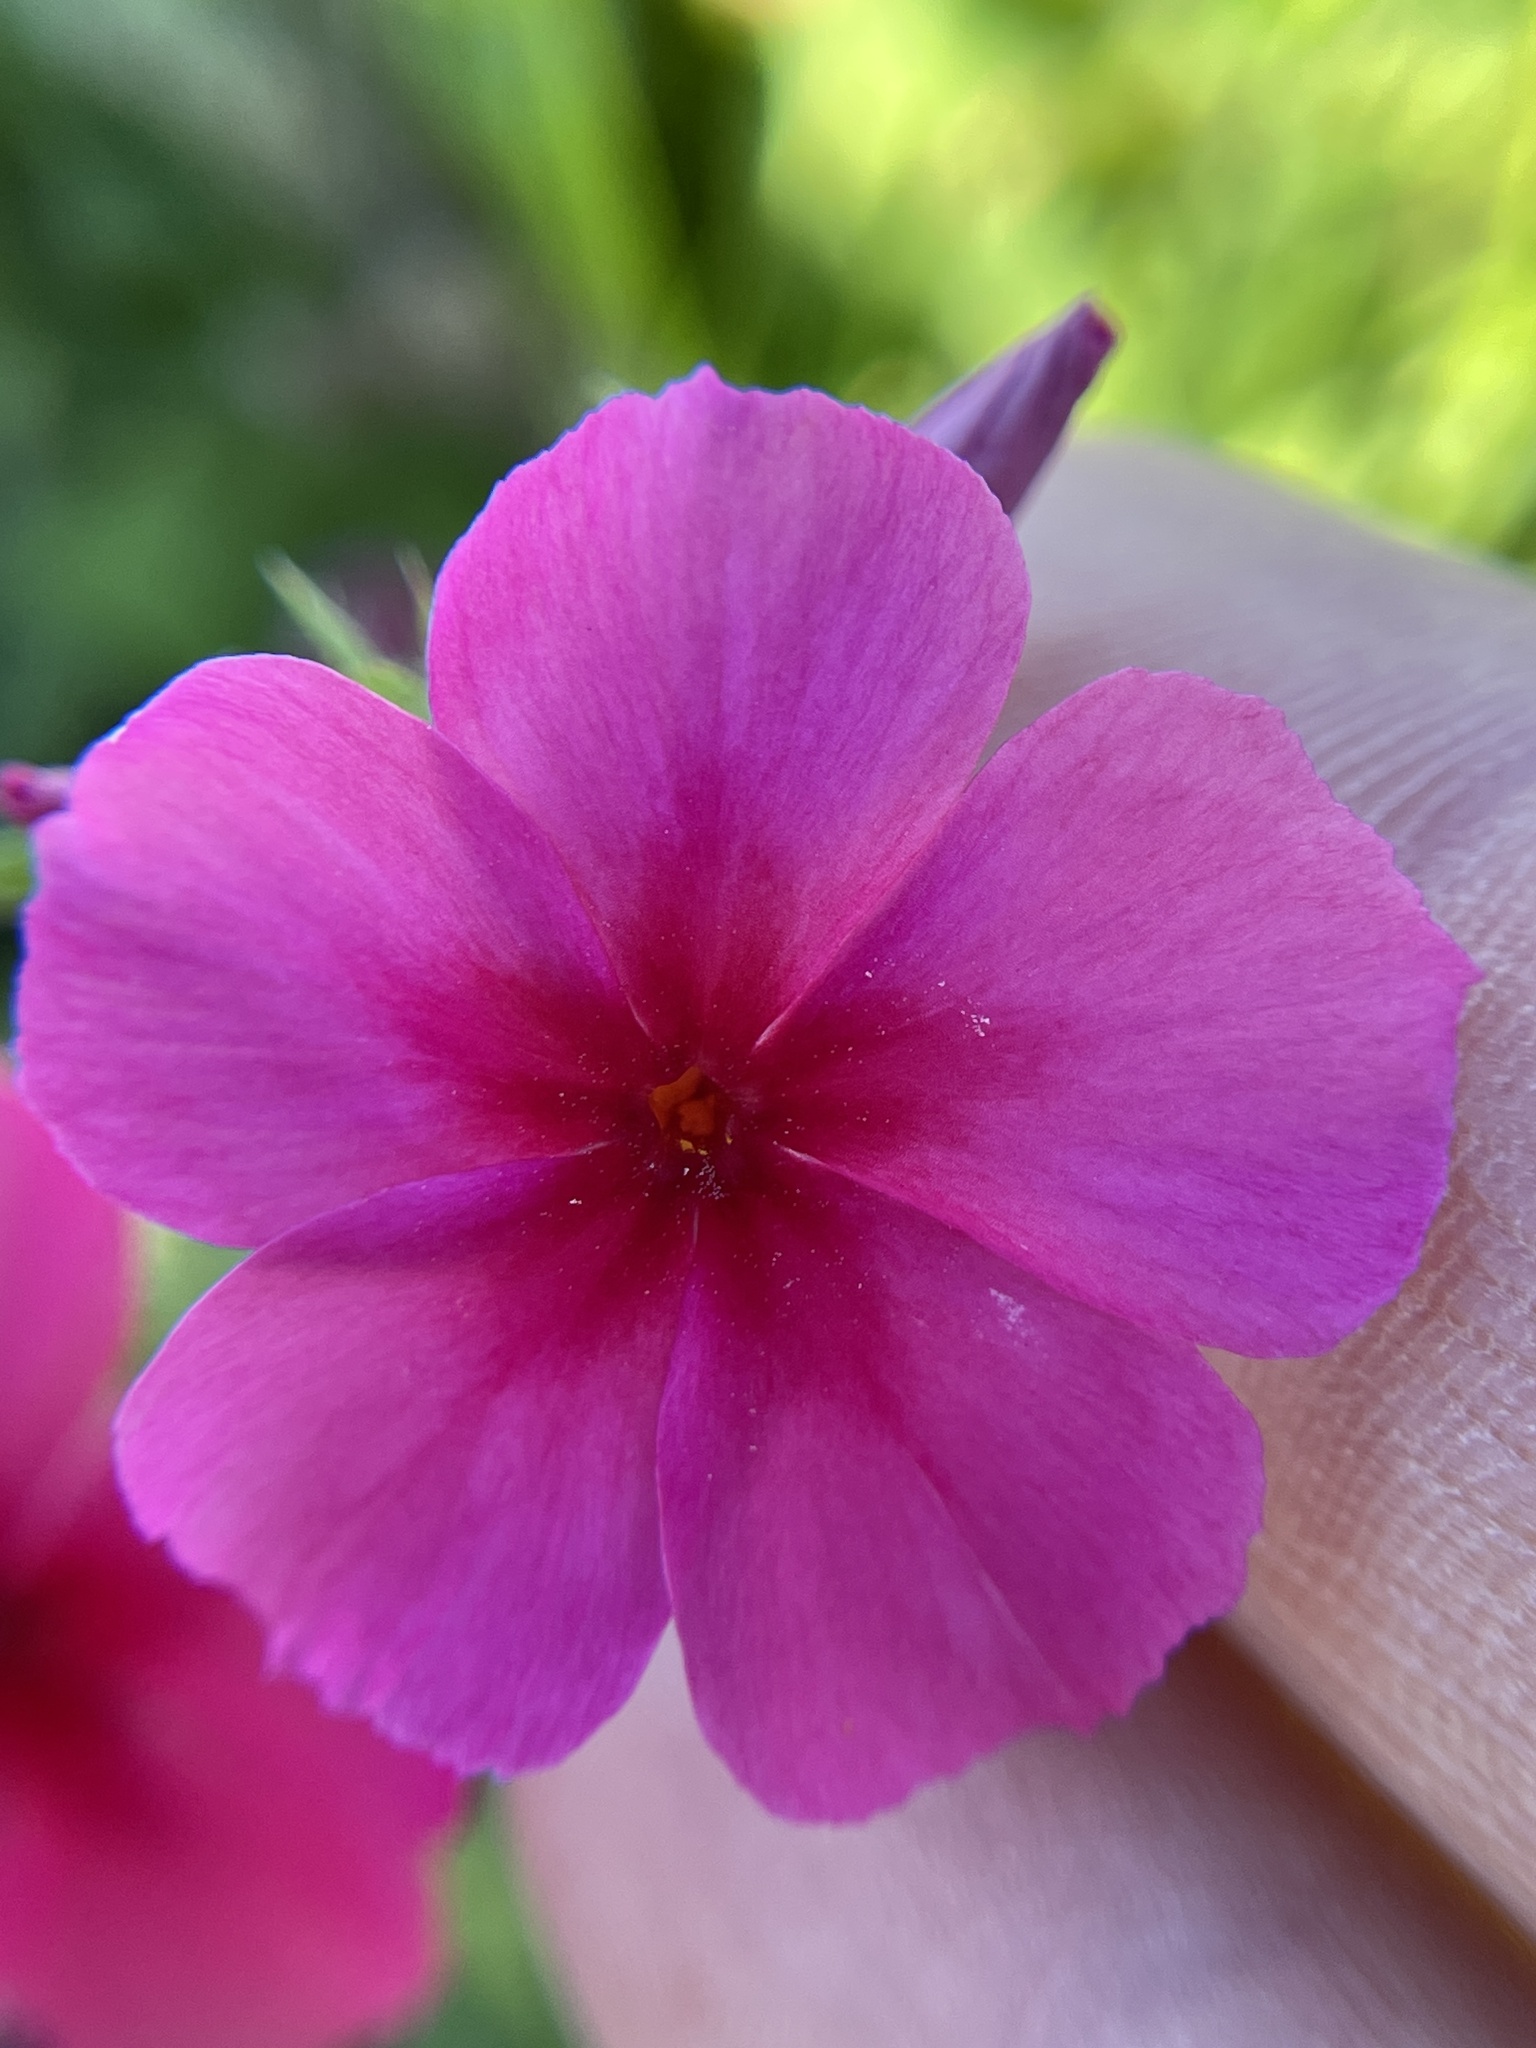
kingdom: Plantae
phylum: Tracheophyta
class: Magnoliopsida
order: Ericales
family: Polemoniaceae
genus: Phlox
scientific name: Phlox drummondii
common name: Drummond's phlox
